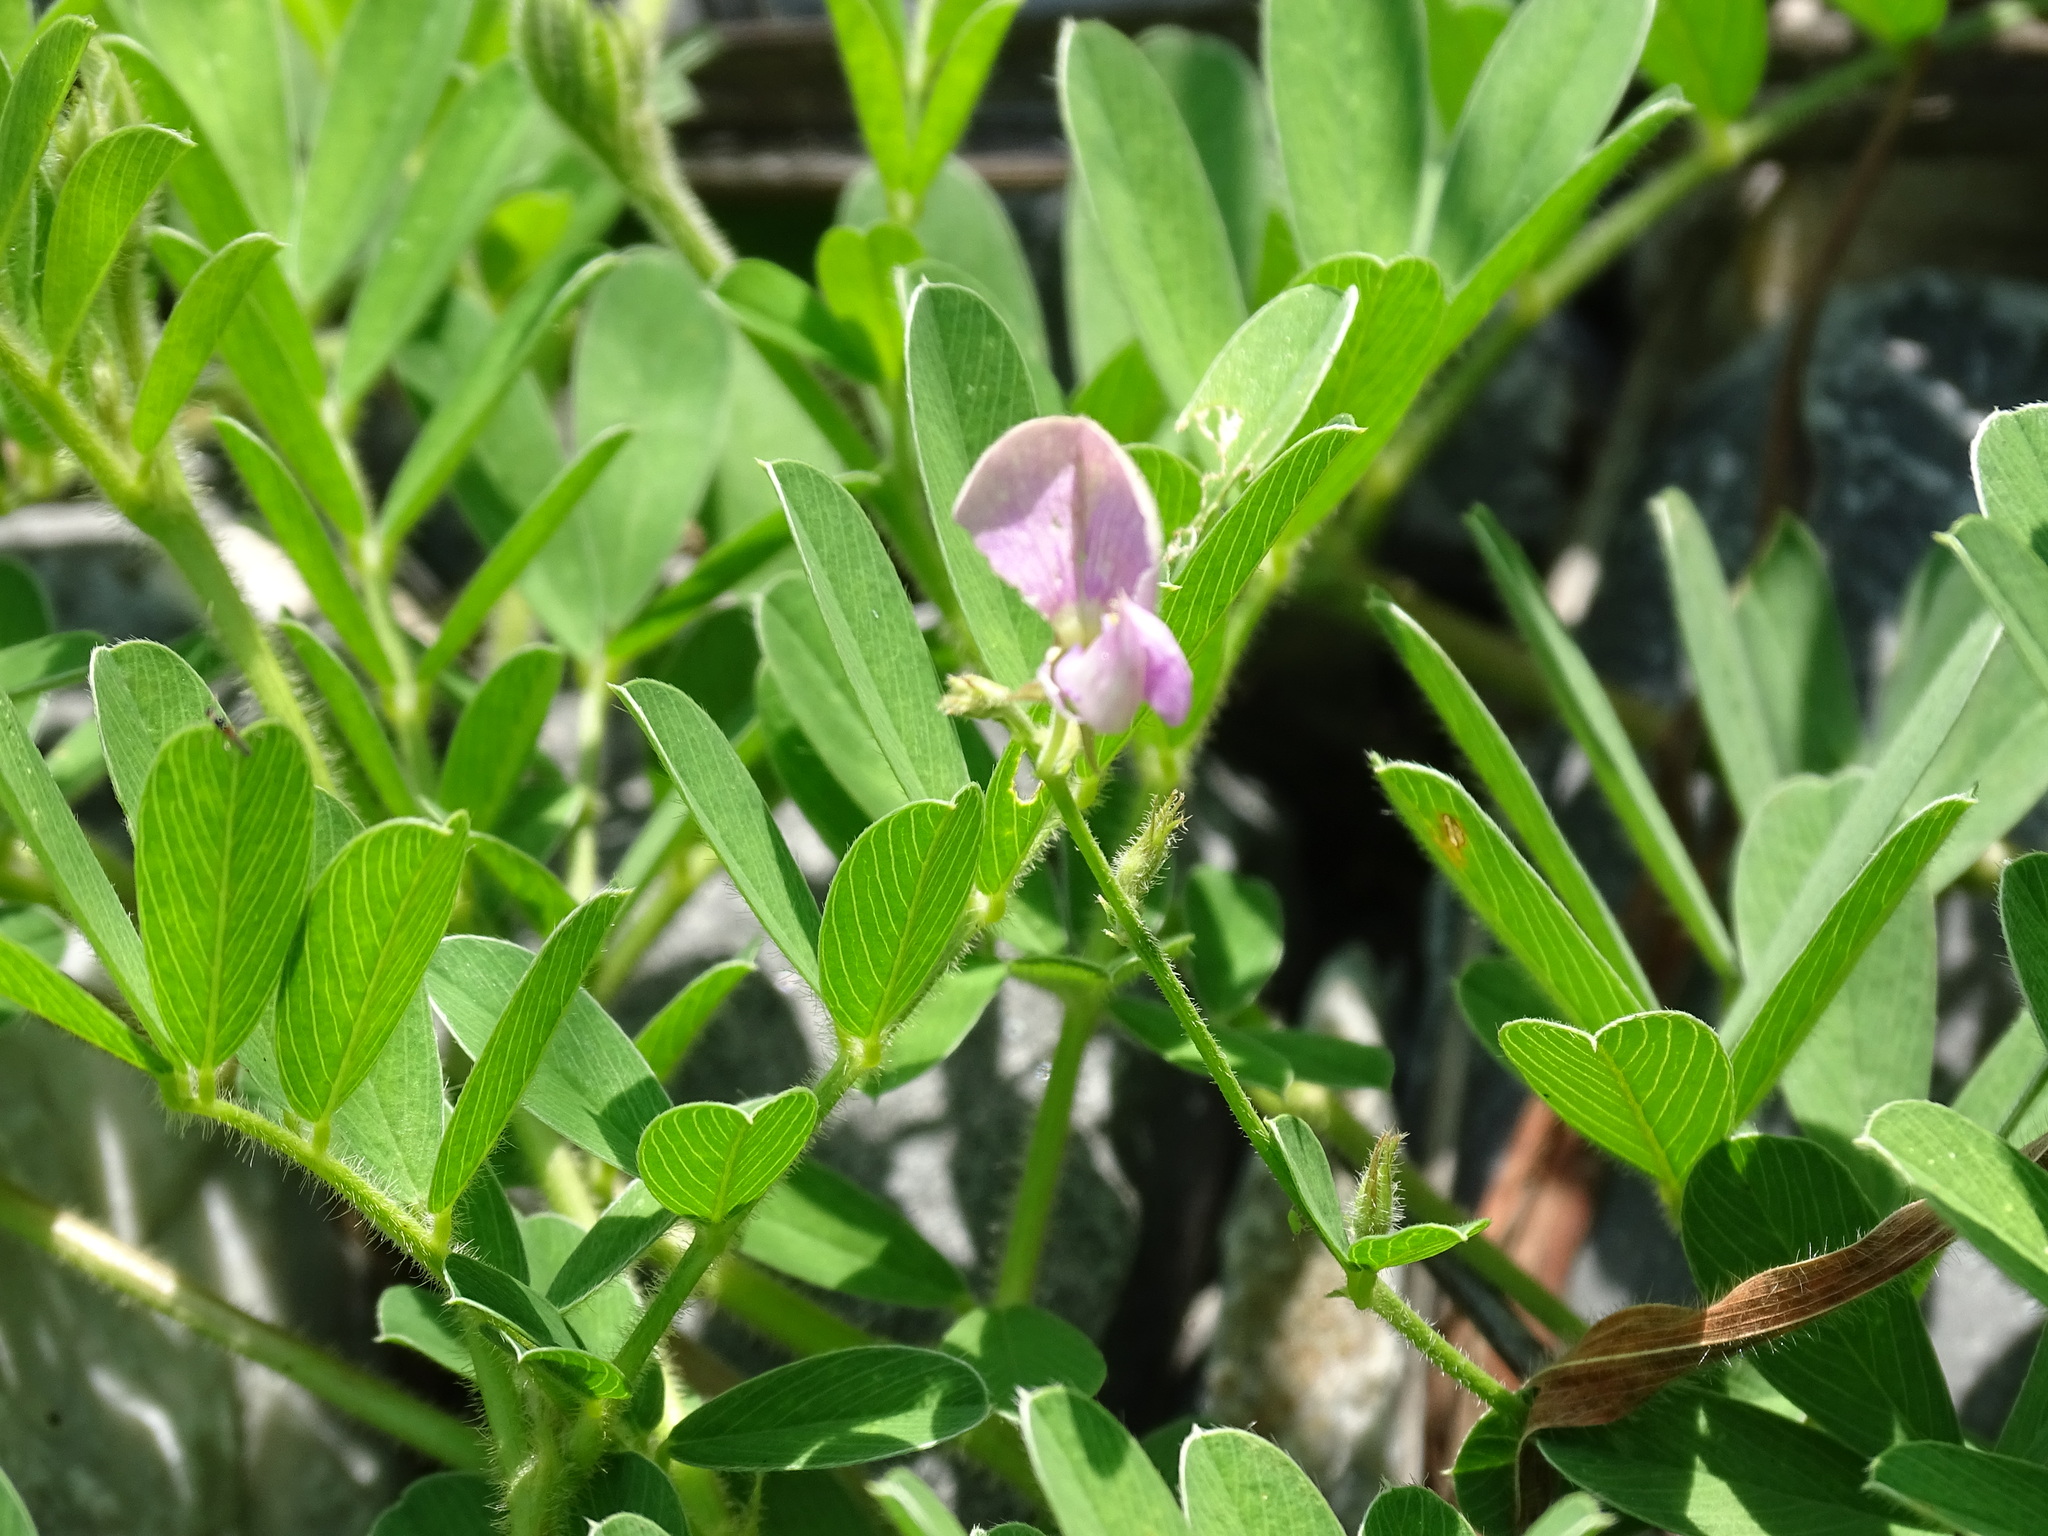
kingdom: Plantae
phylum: Tracheophyta
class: Magnoliopsida
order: Fabales
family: Fabaceae
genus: Tephrosia
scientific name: Tephrosia cinerea
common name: Ashen hoarypea
